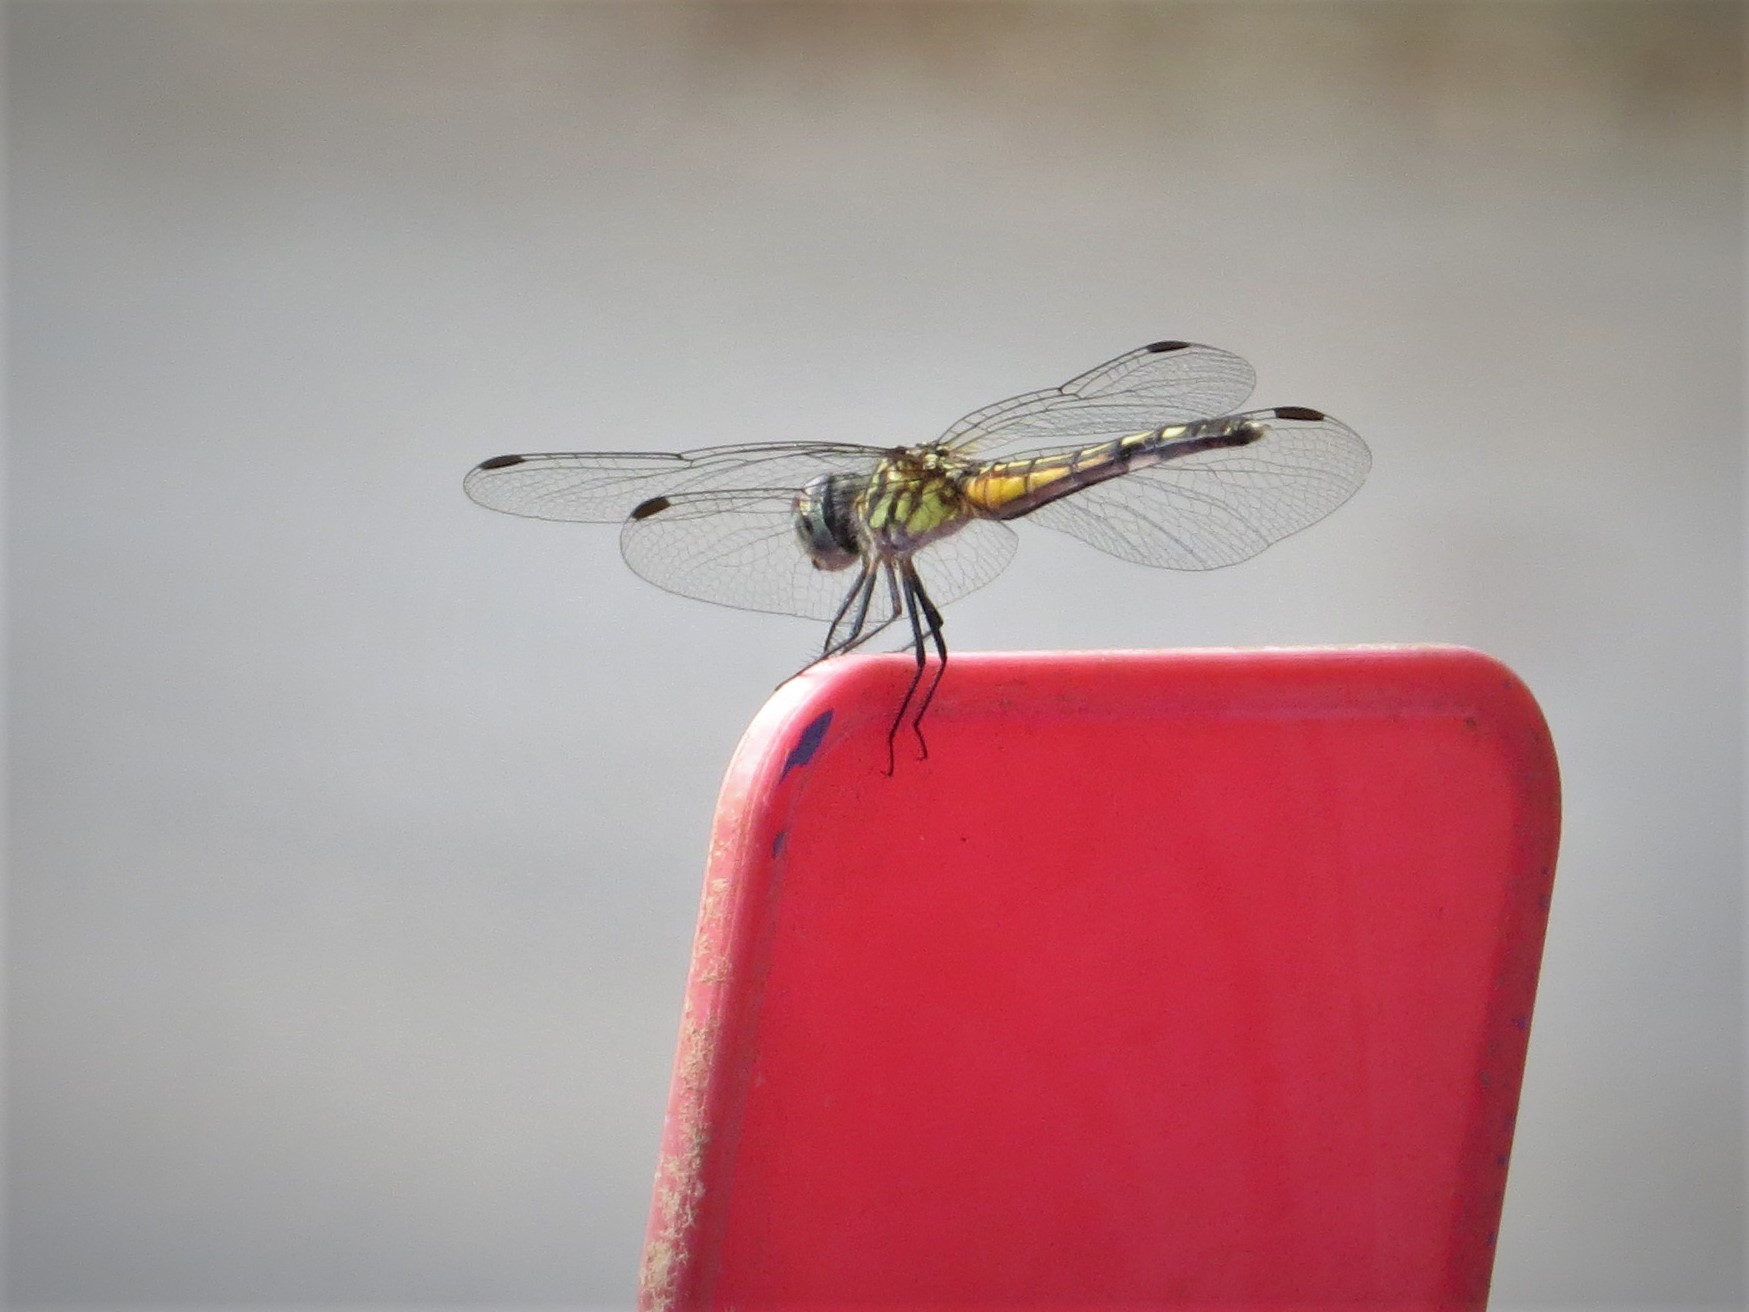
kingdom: Animalia
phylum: Arthropoda
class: Insecta
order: Odonata
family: Libellulidae
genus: Pachydiplax
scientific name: Pachydiplax longipennis
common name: Blue dasher
